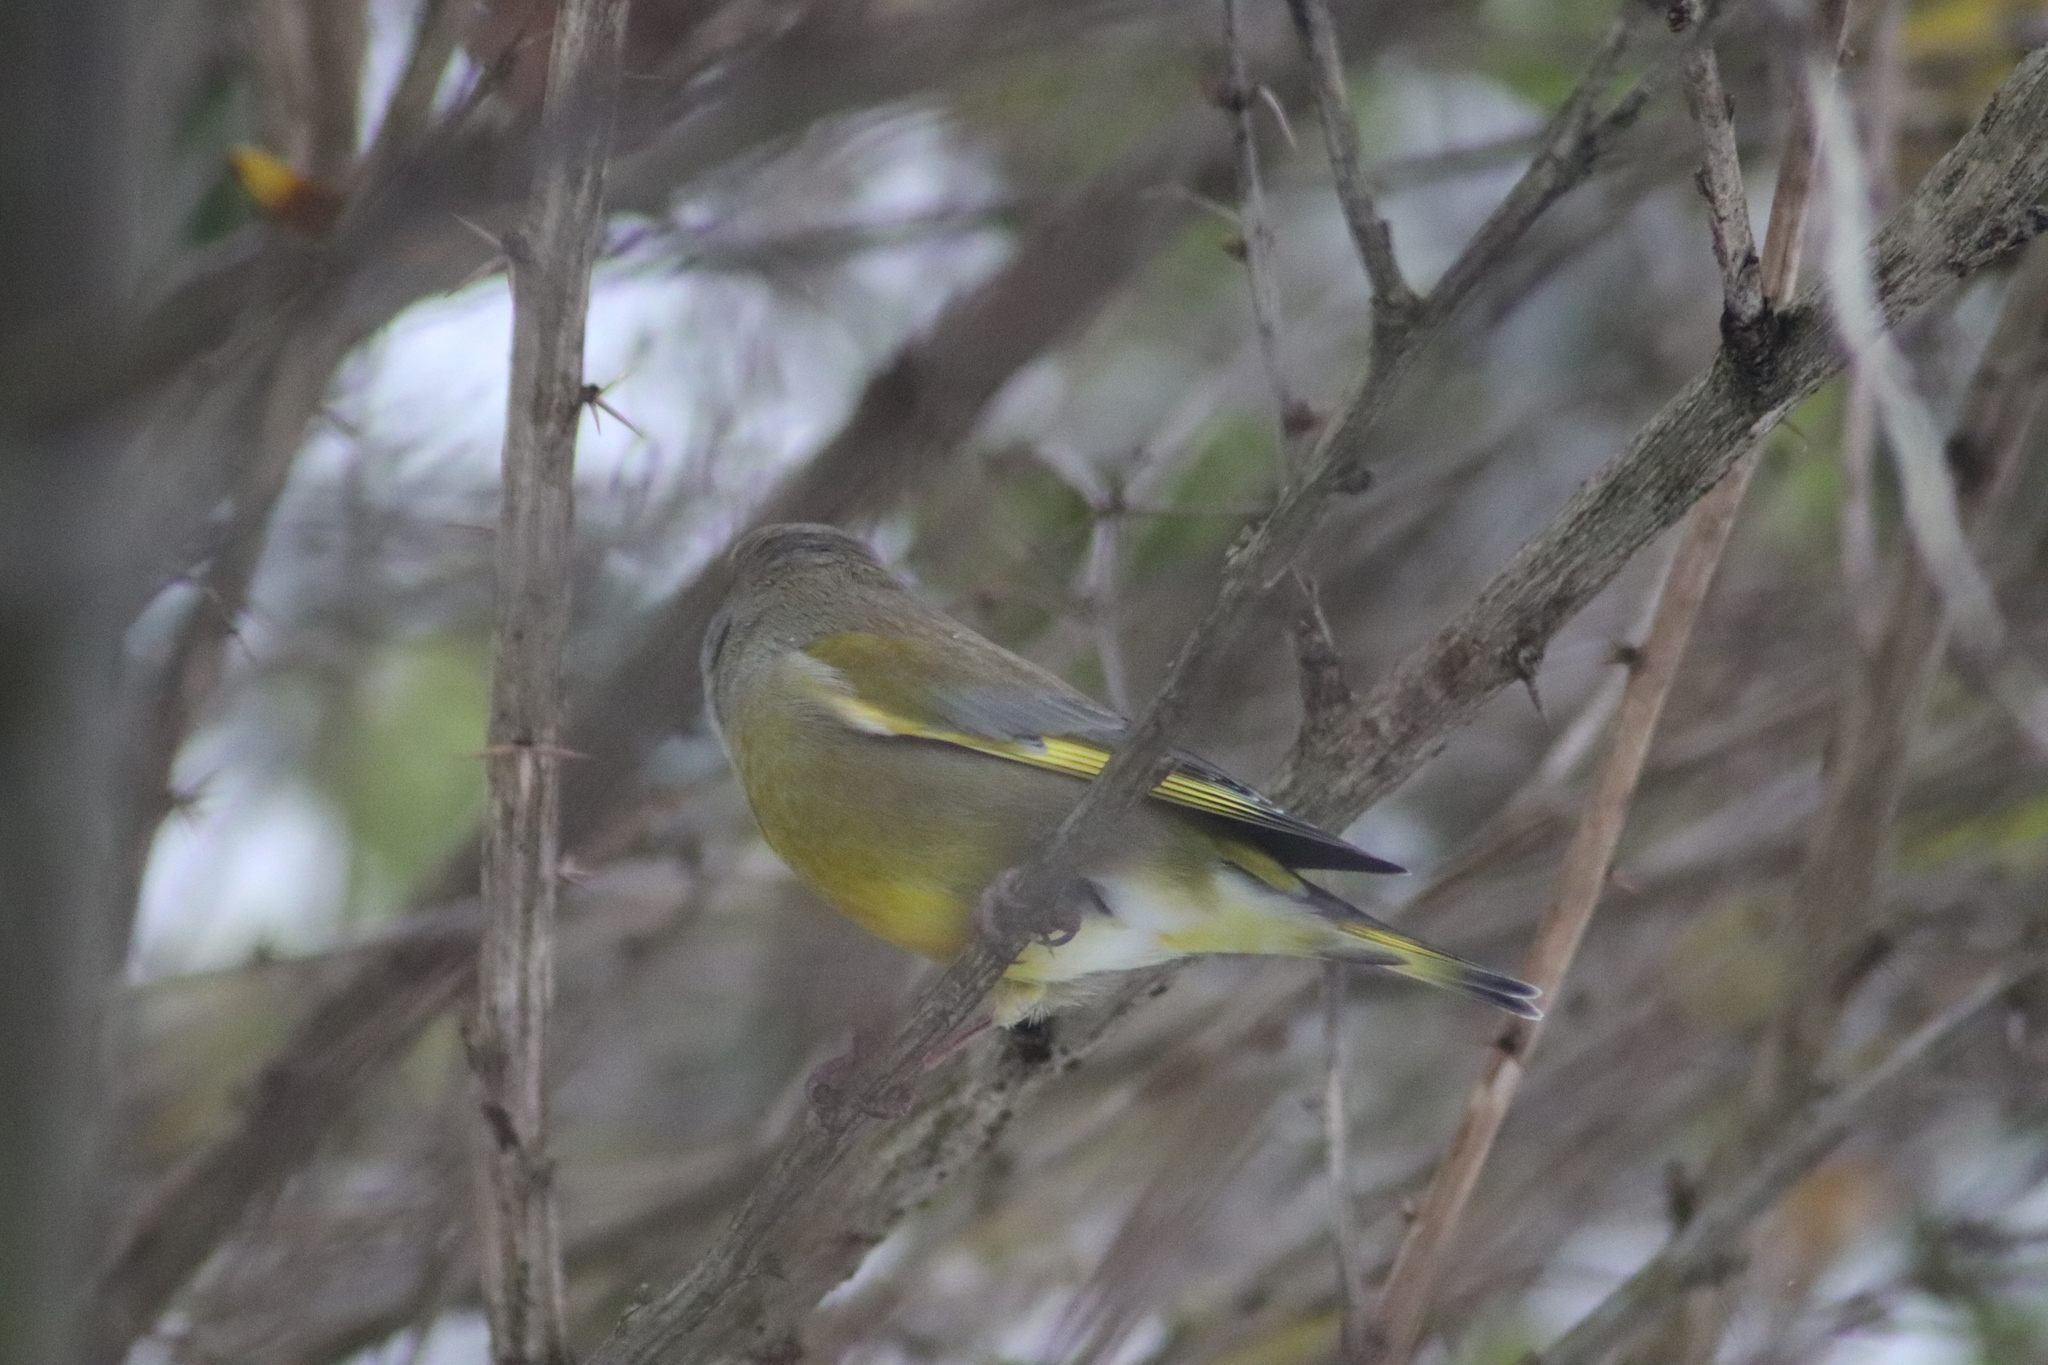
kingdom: Plantae
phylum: Tracheophyta
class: Liliopsida
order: Poales
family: Poaceae
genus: Chloris
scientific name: Chloris chloris
